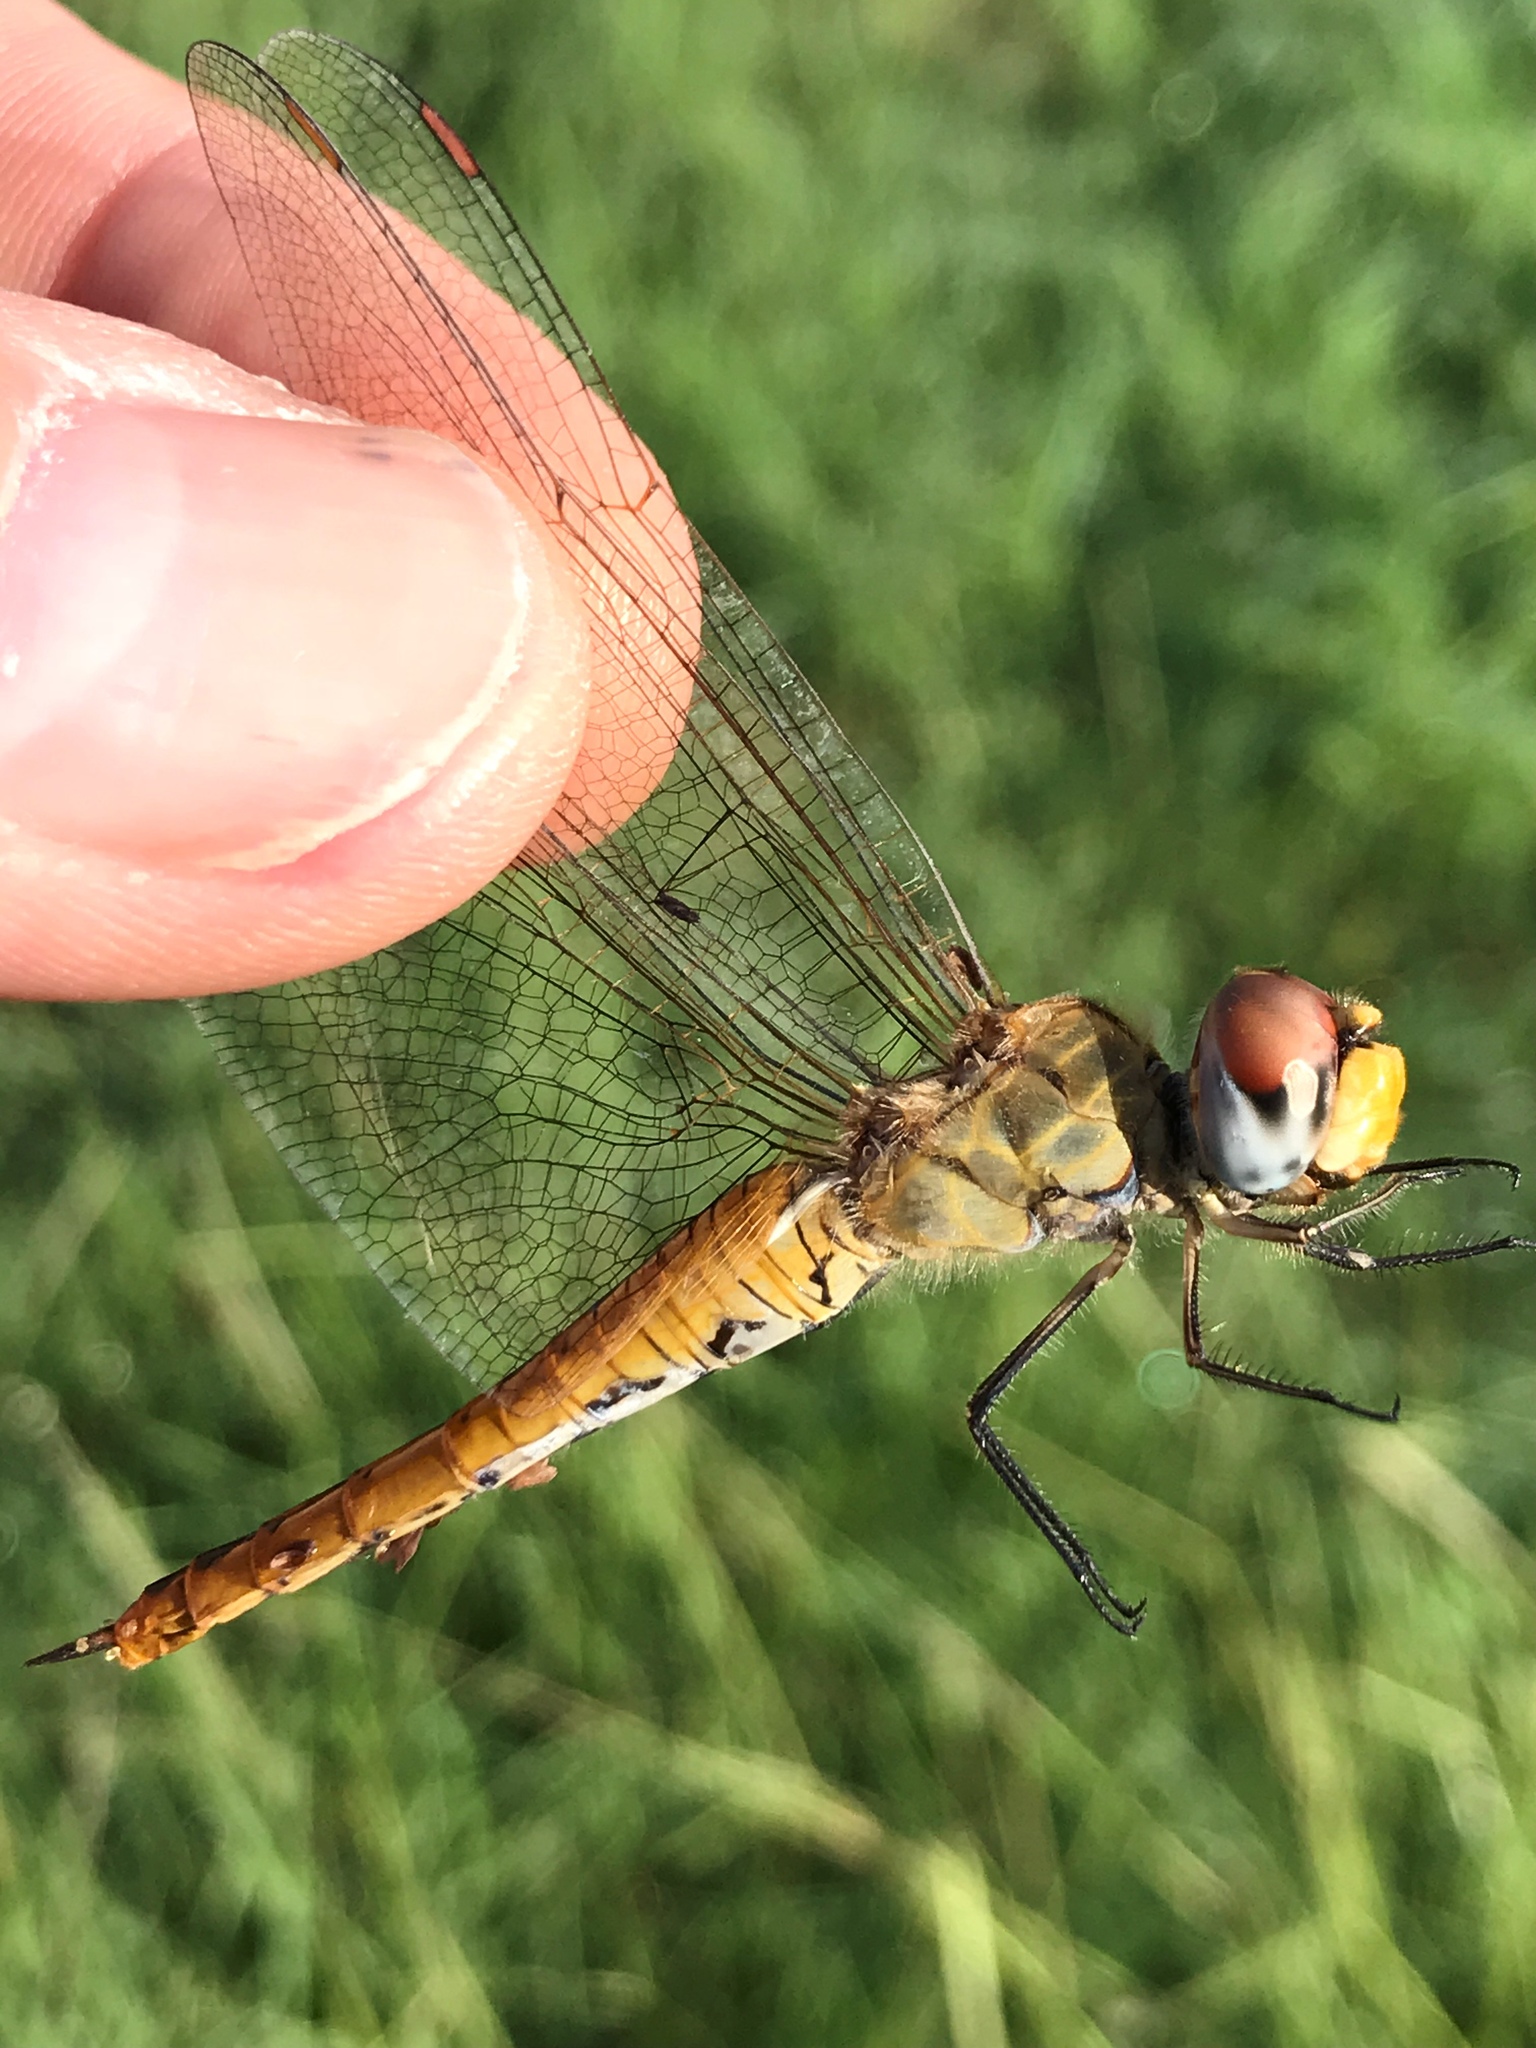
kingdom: Animalia
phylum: Arthropoda
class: Insecta
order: Odonata
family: Libellulidae
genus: Pantala
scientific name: Pantala flavescens
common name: Wandering glider
